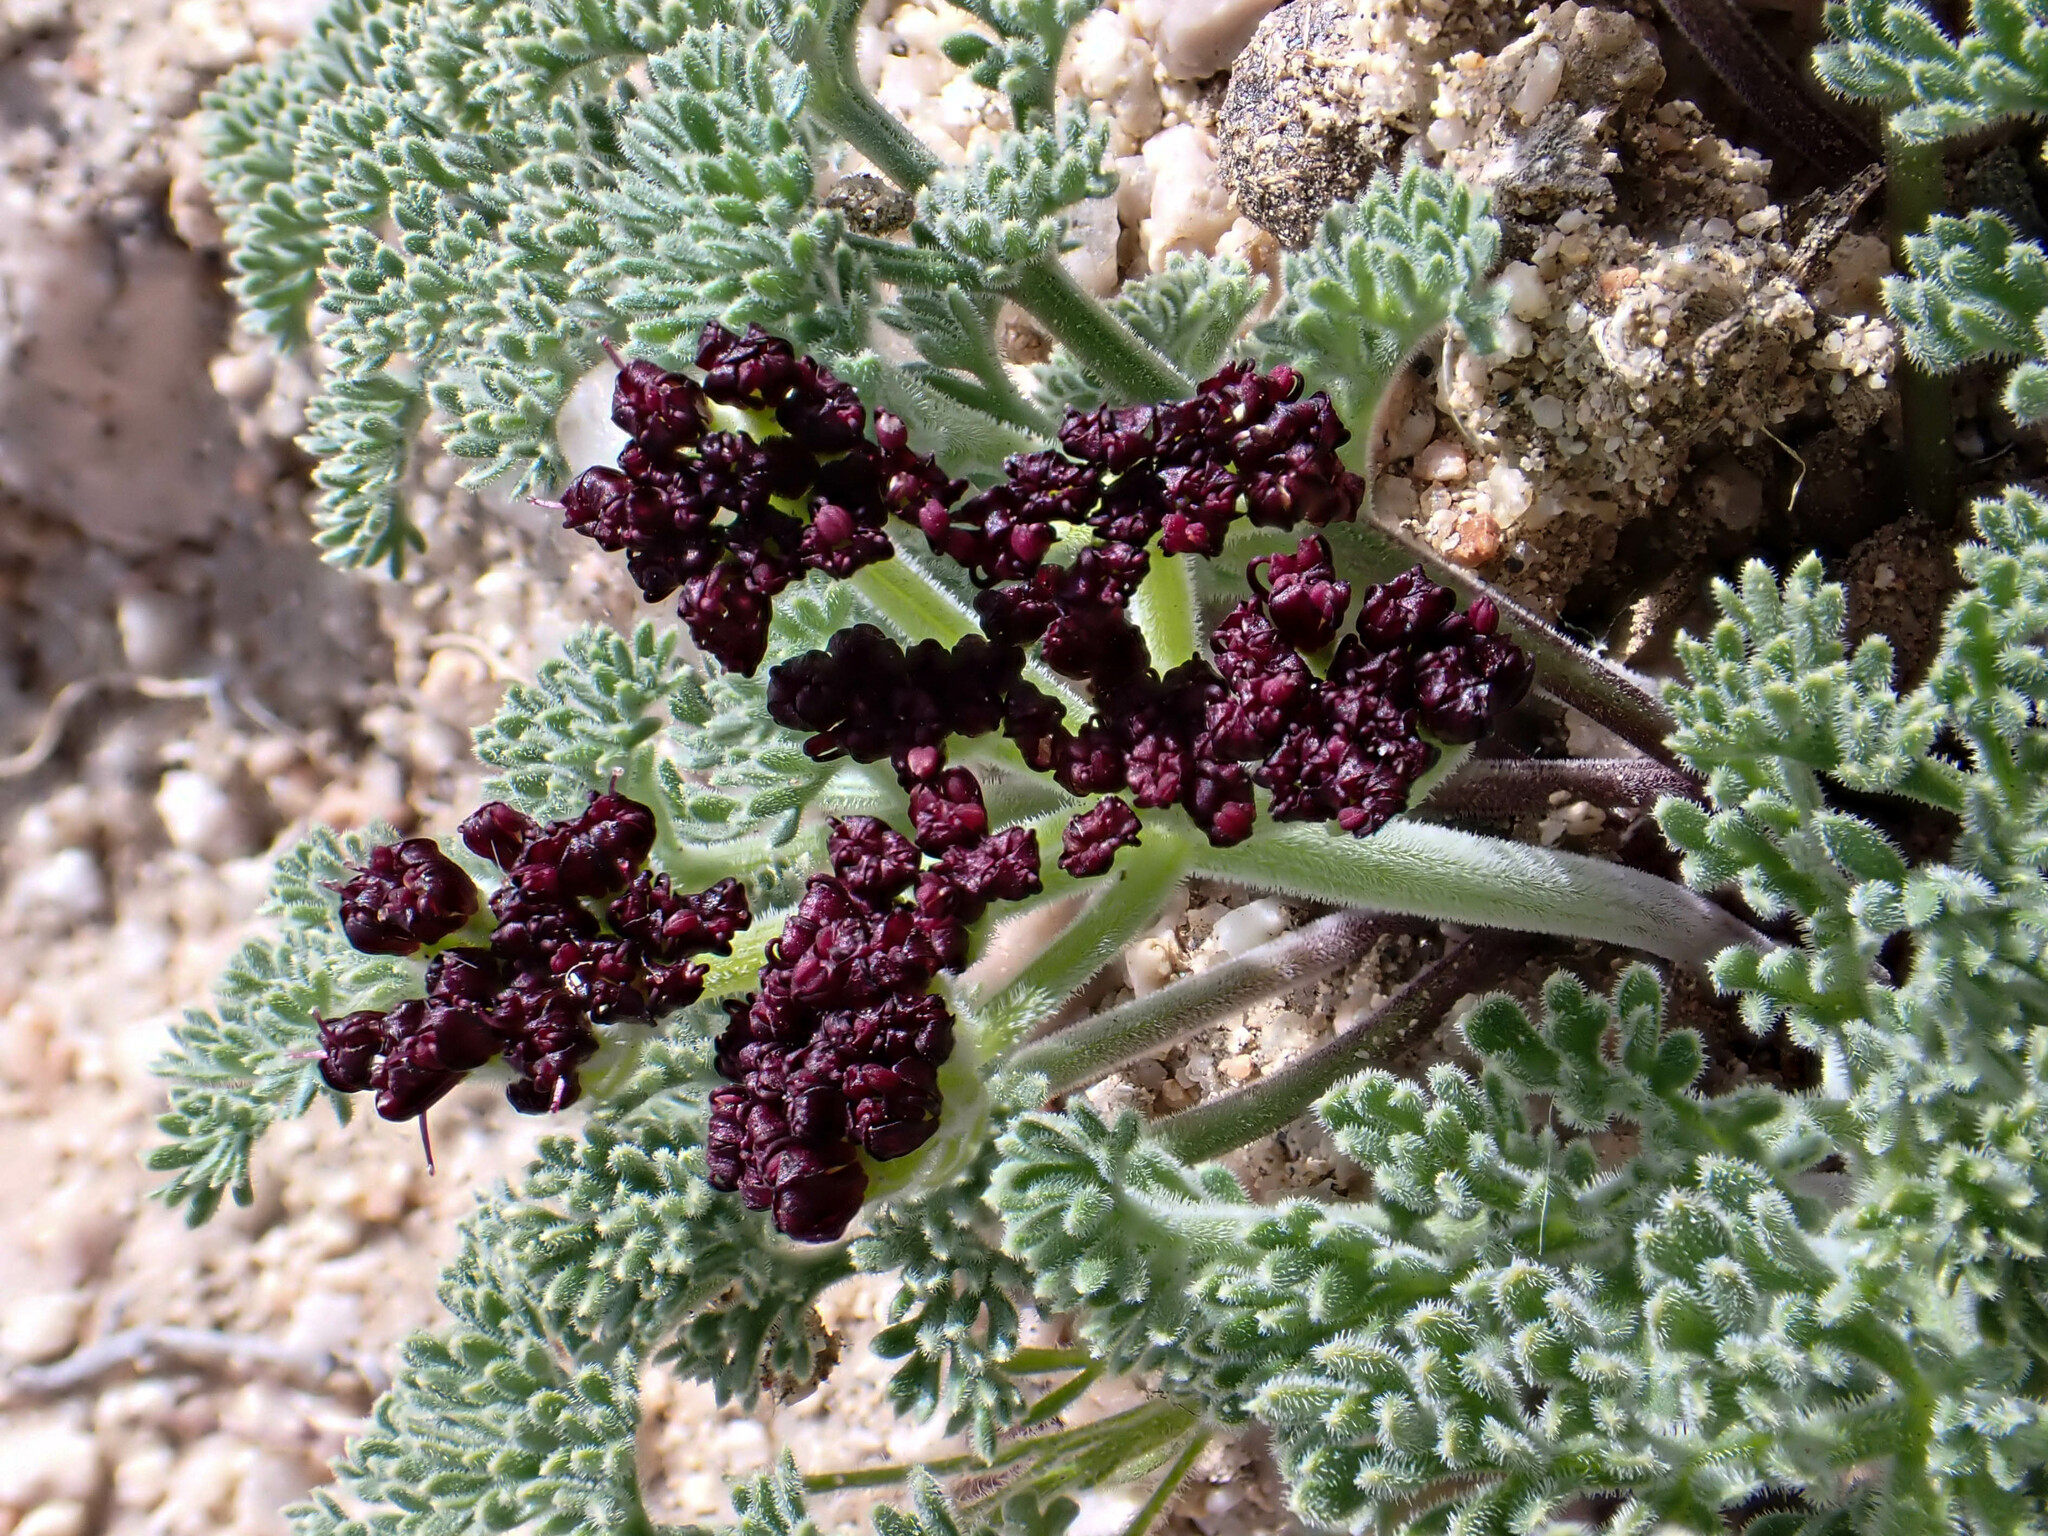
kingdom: Plantae
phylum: Tracheophyta
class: Magnoliopsida
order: Apiales
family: Apiaceae
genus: Lomatium
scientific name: Lomatium mohavense
